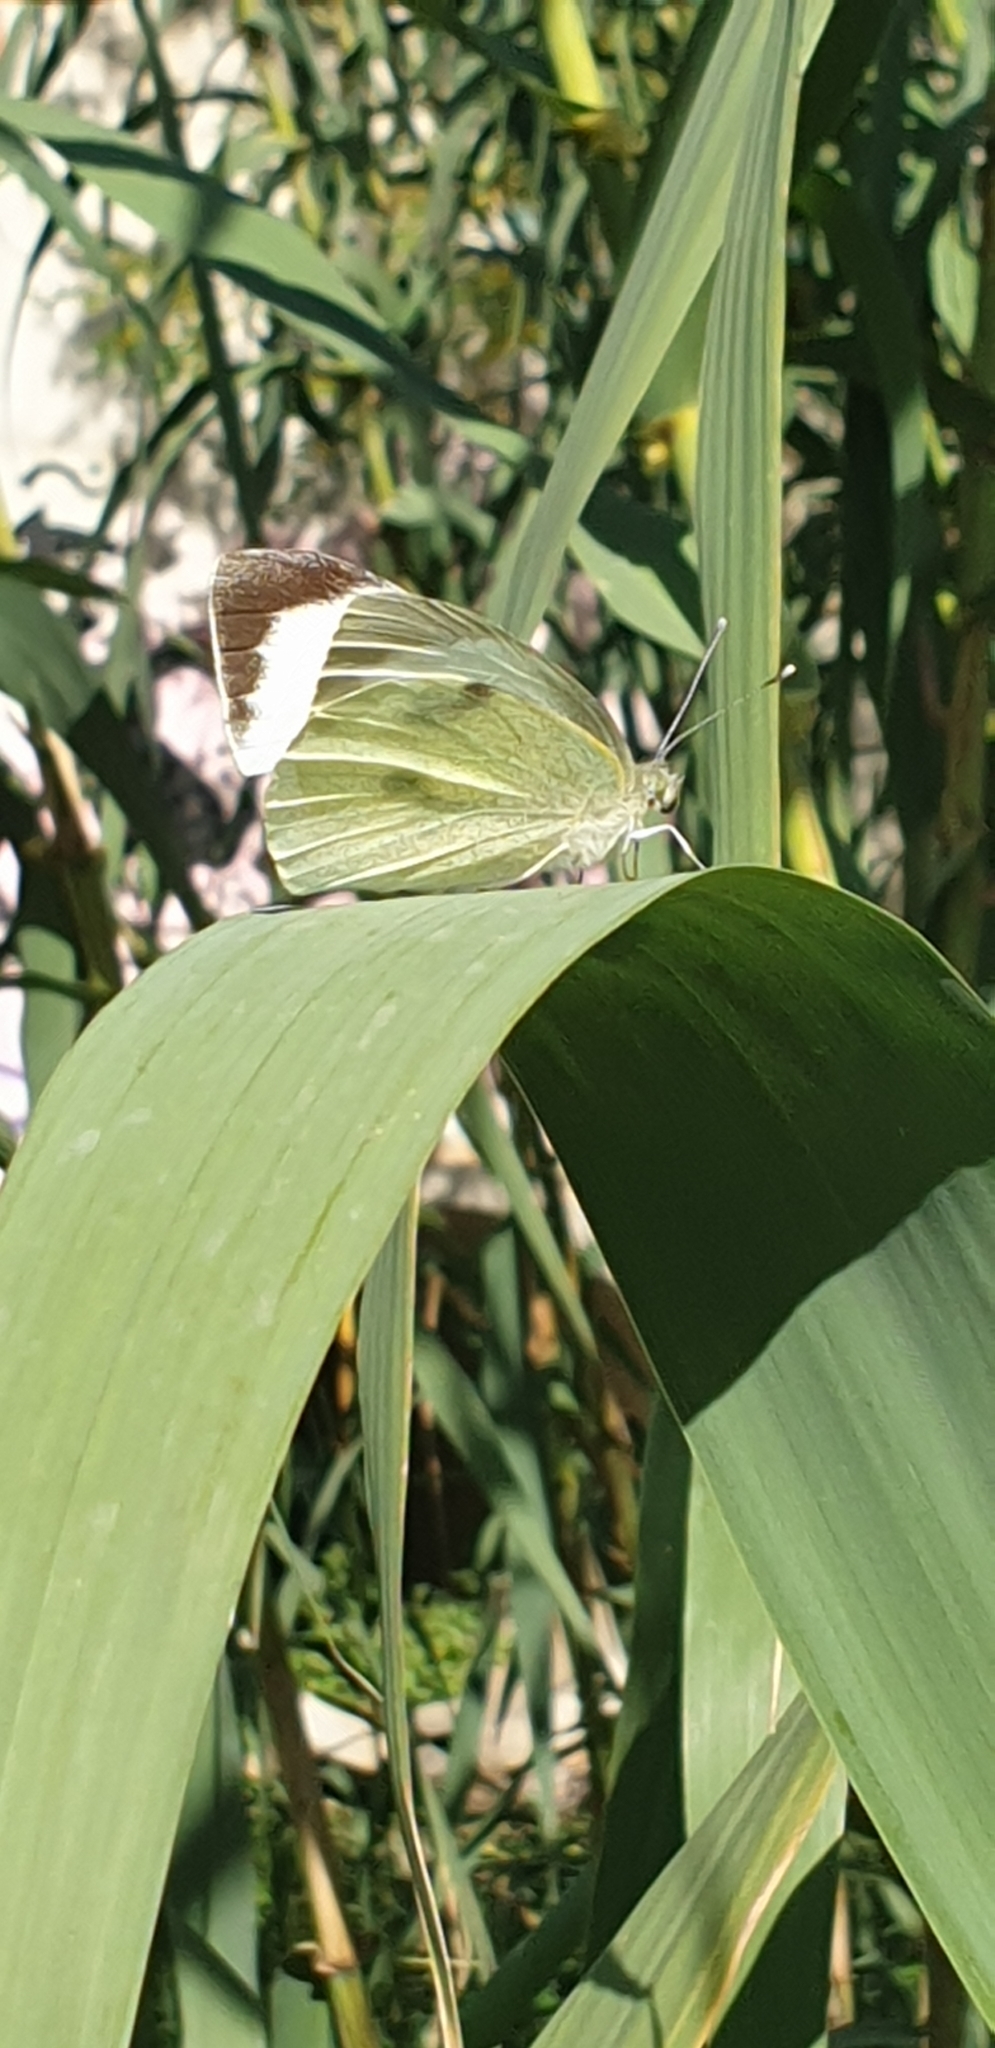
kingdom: Animalia
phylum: Arthropoda
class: Insecta
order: Lepidoptera
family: Pieridae
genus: Pieris
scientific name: Pieris brassicae
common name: Large white
